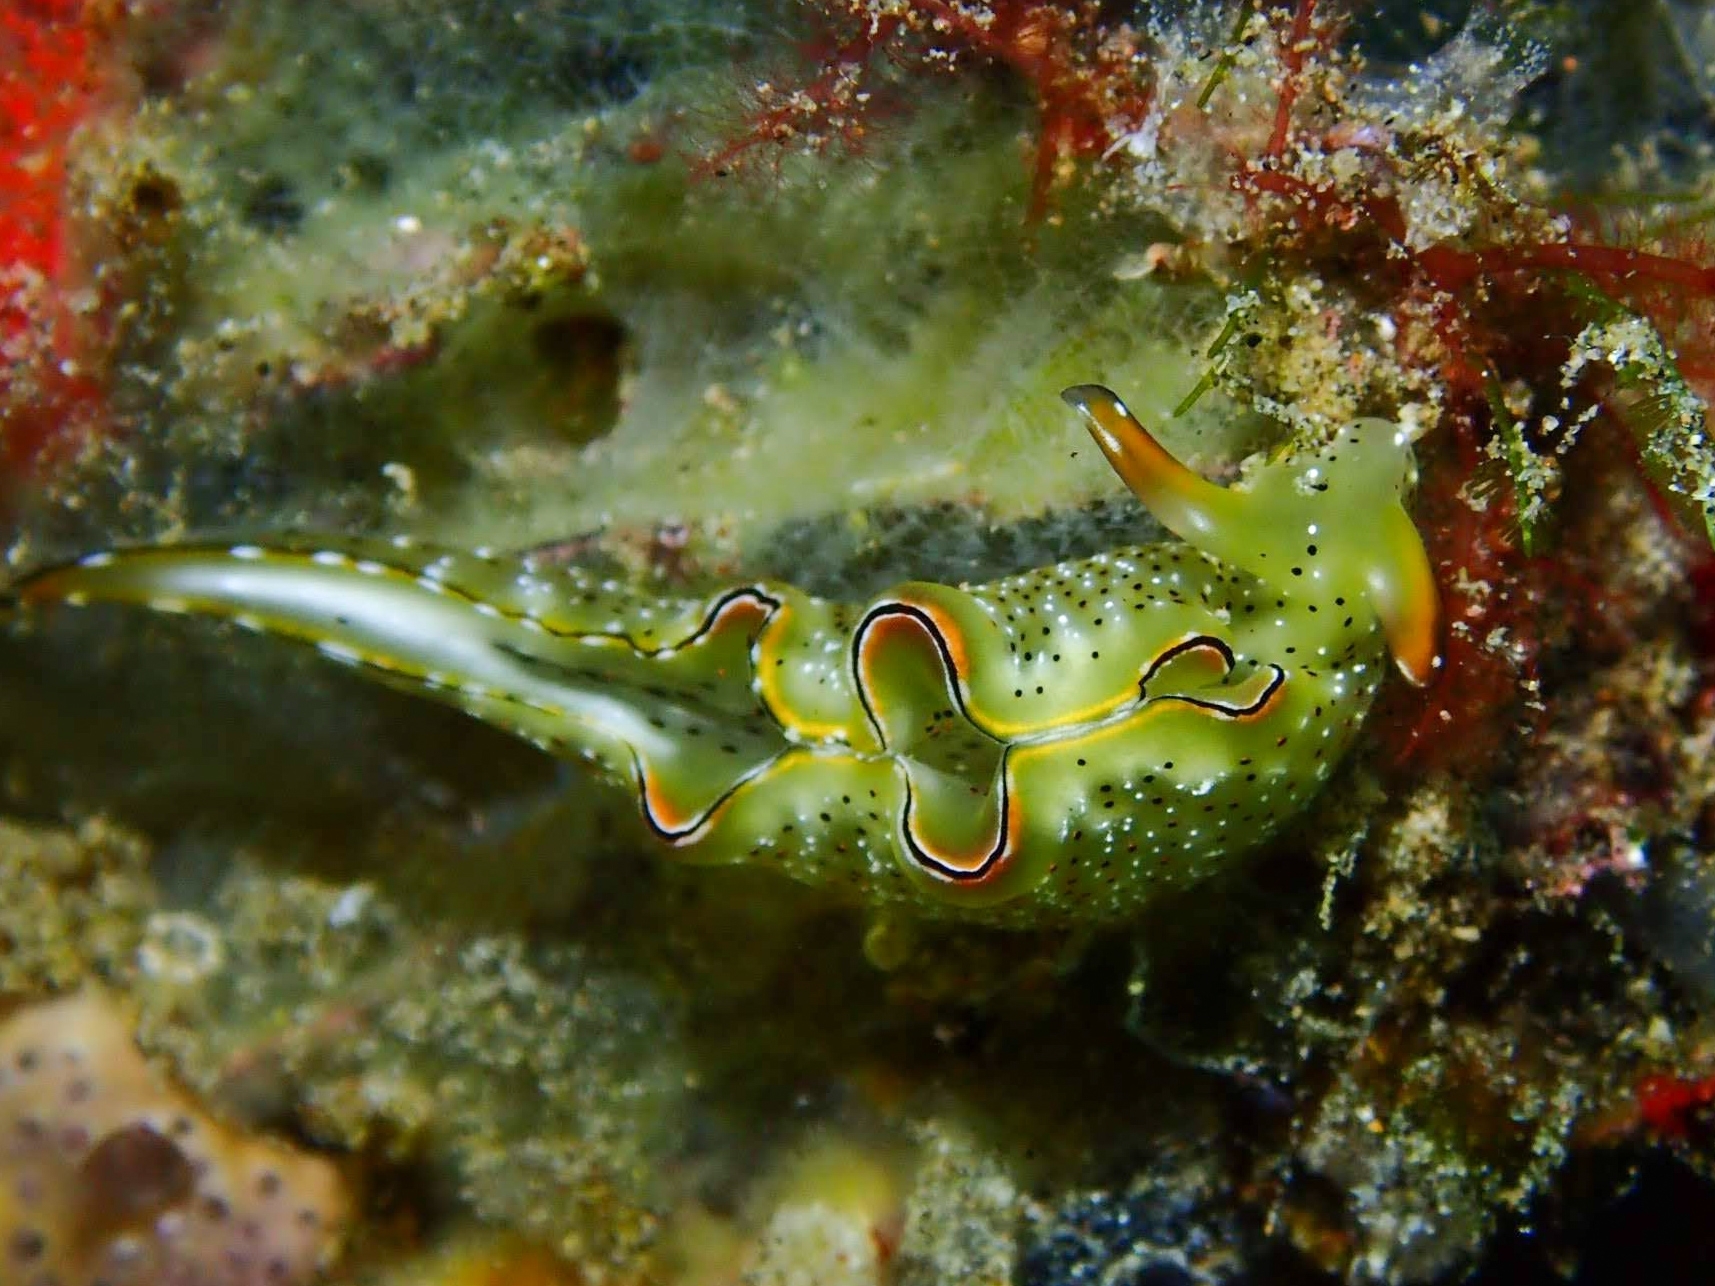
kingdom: Animalia
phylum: Mollusca
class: Gastropoda
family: Plakobranchidae
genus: Elysia
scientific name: Elysia marginata
